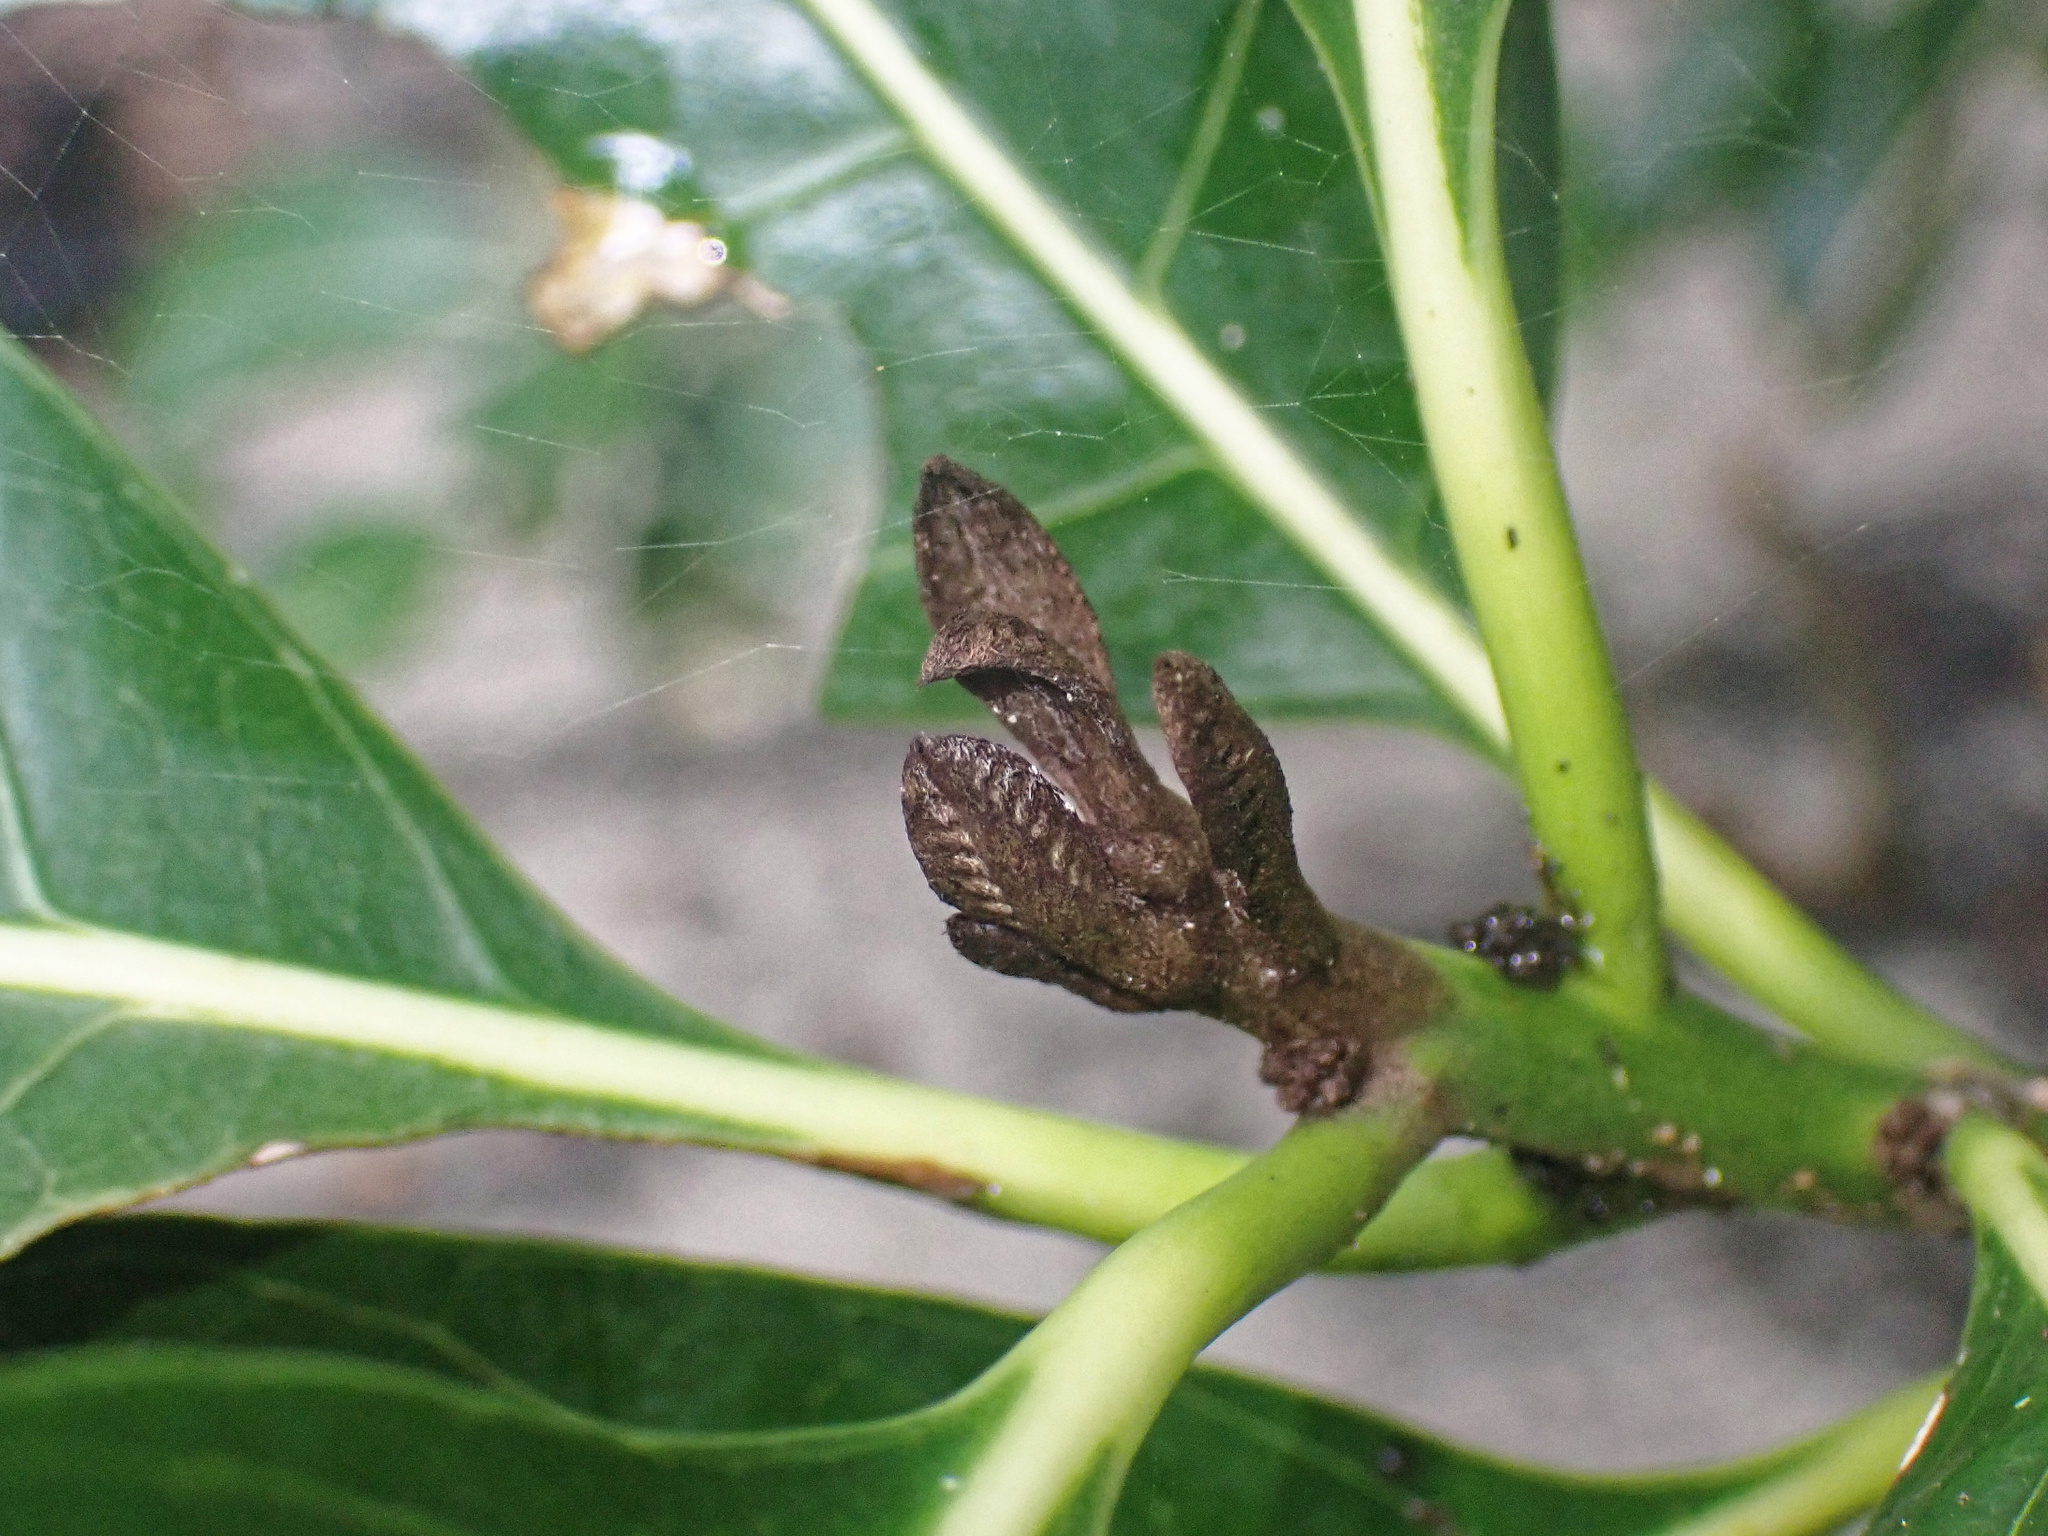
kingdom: Plantae
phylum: Tracheophyta
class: Magnoliopsida
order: Ericales
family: Sapotaceae
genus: Planchonella
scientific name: Planchonella obovata
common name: Black-ash
